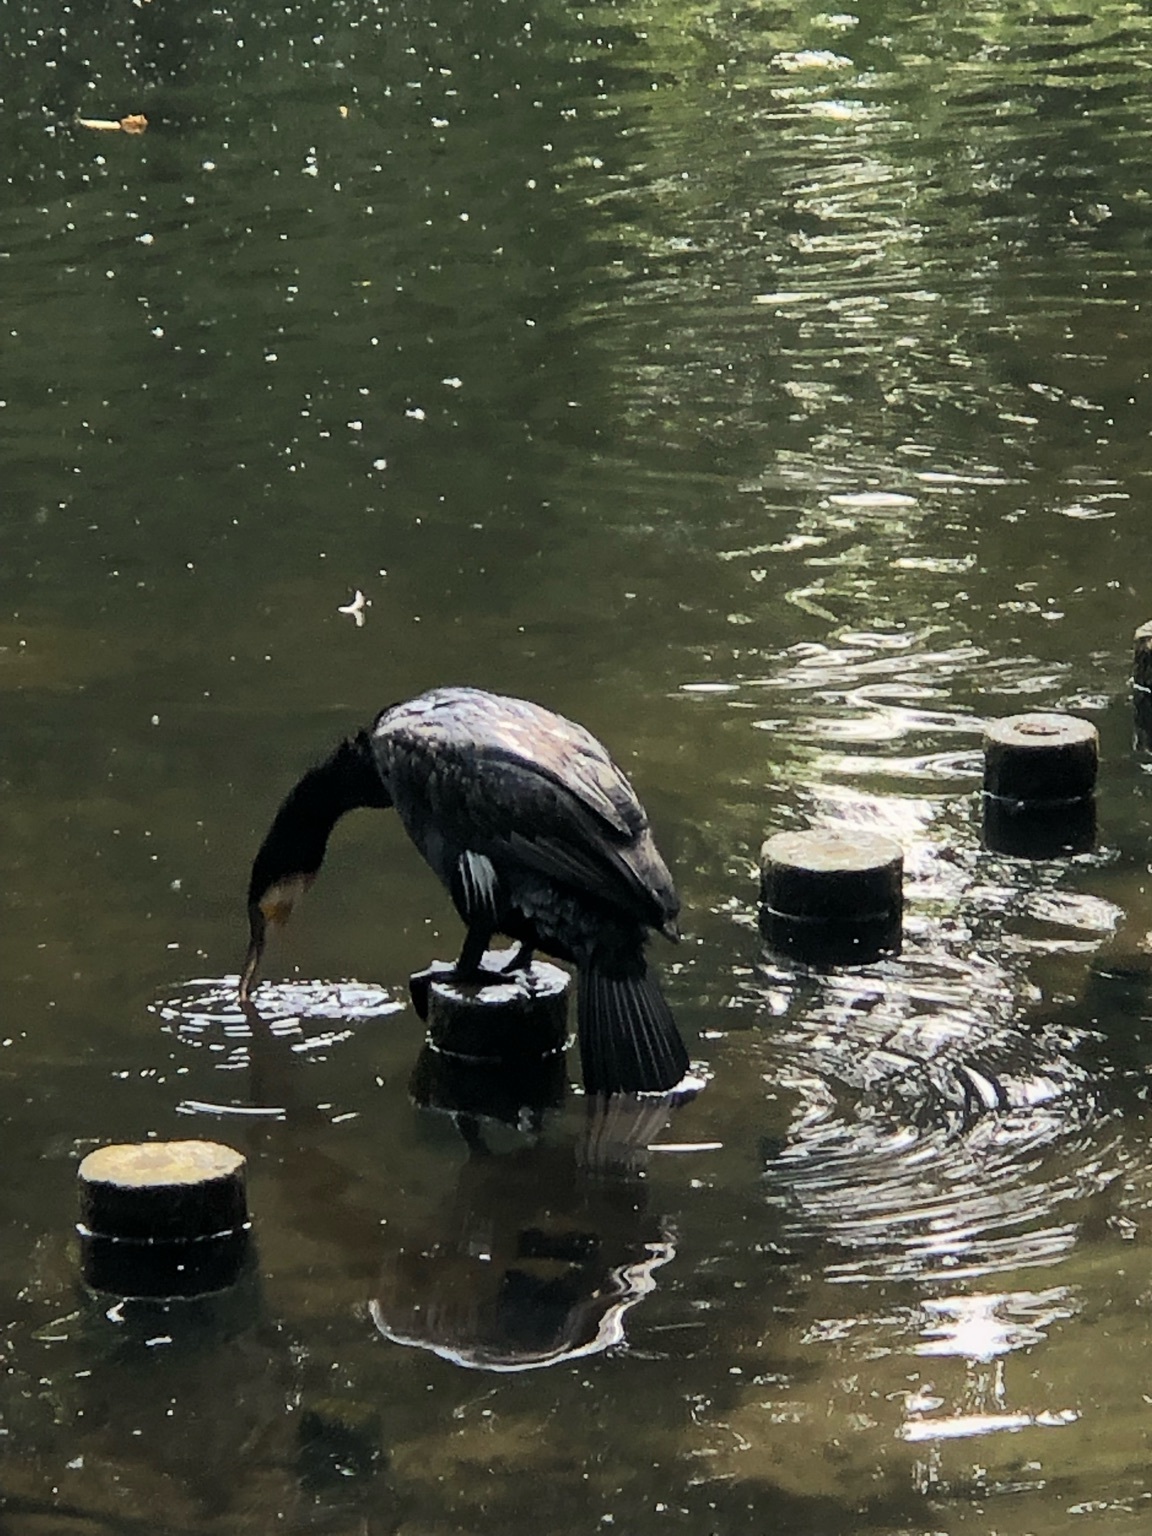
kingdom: Animalia
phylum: Chordata
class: Aves
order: Suliformes
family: Phalacrocoracidae
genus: Phalacrocorax
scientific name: Phalacrocorax carbo
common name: Great cormorant
